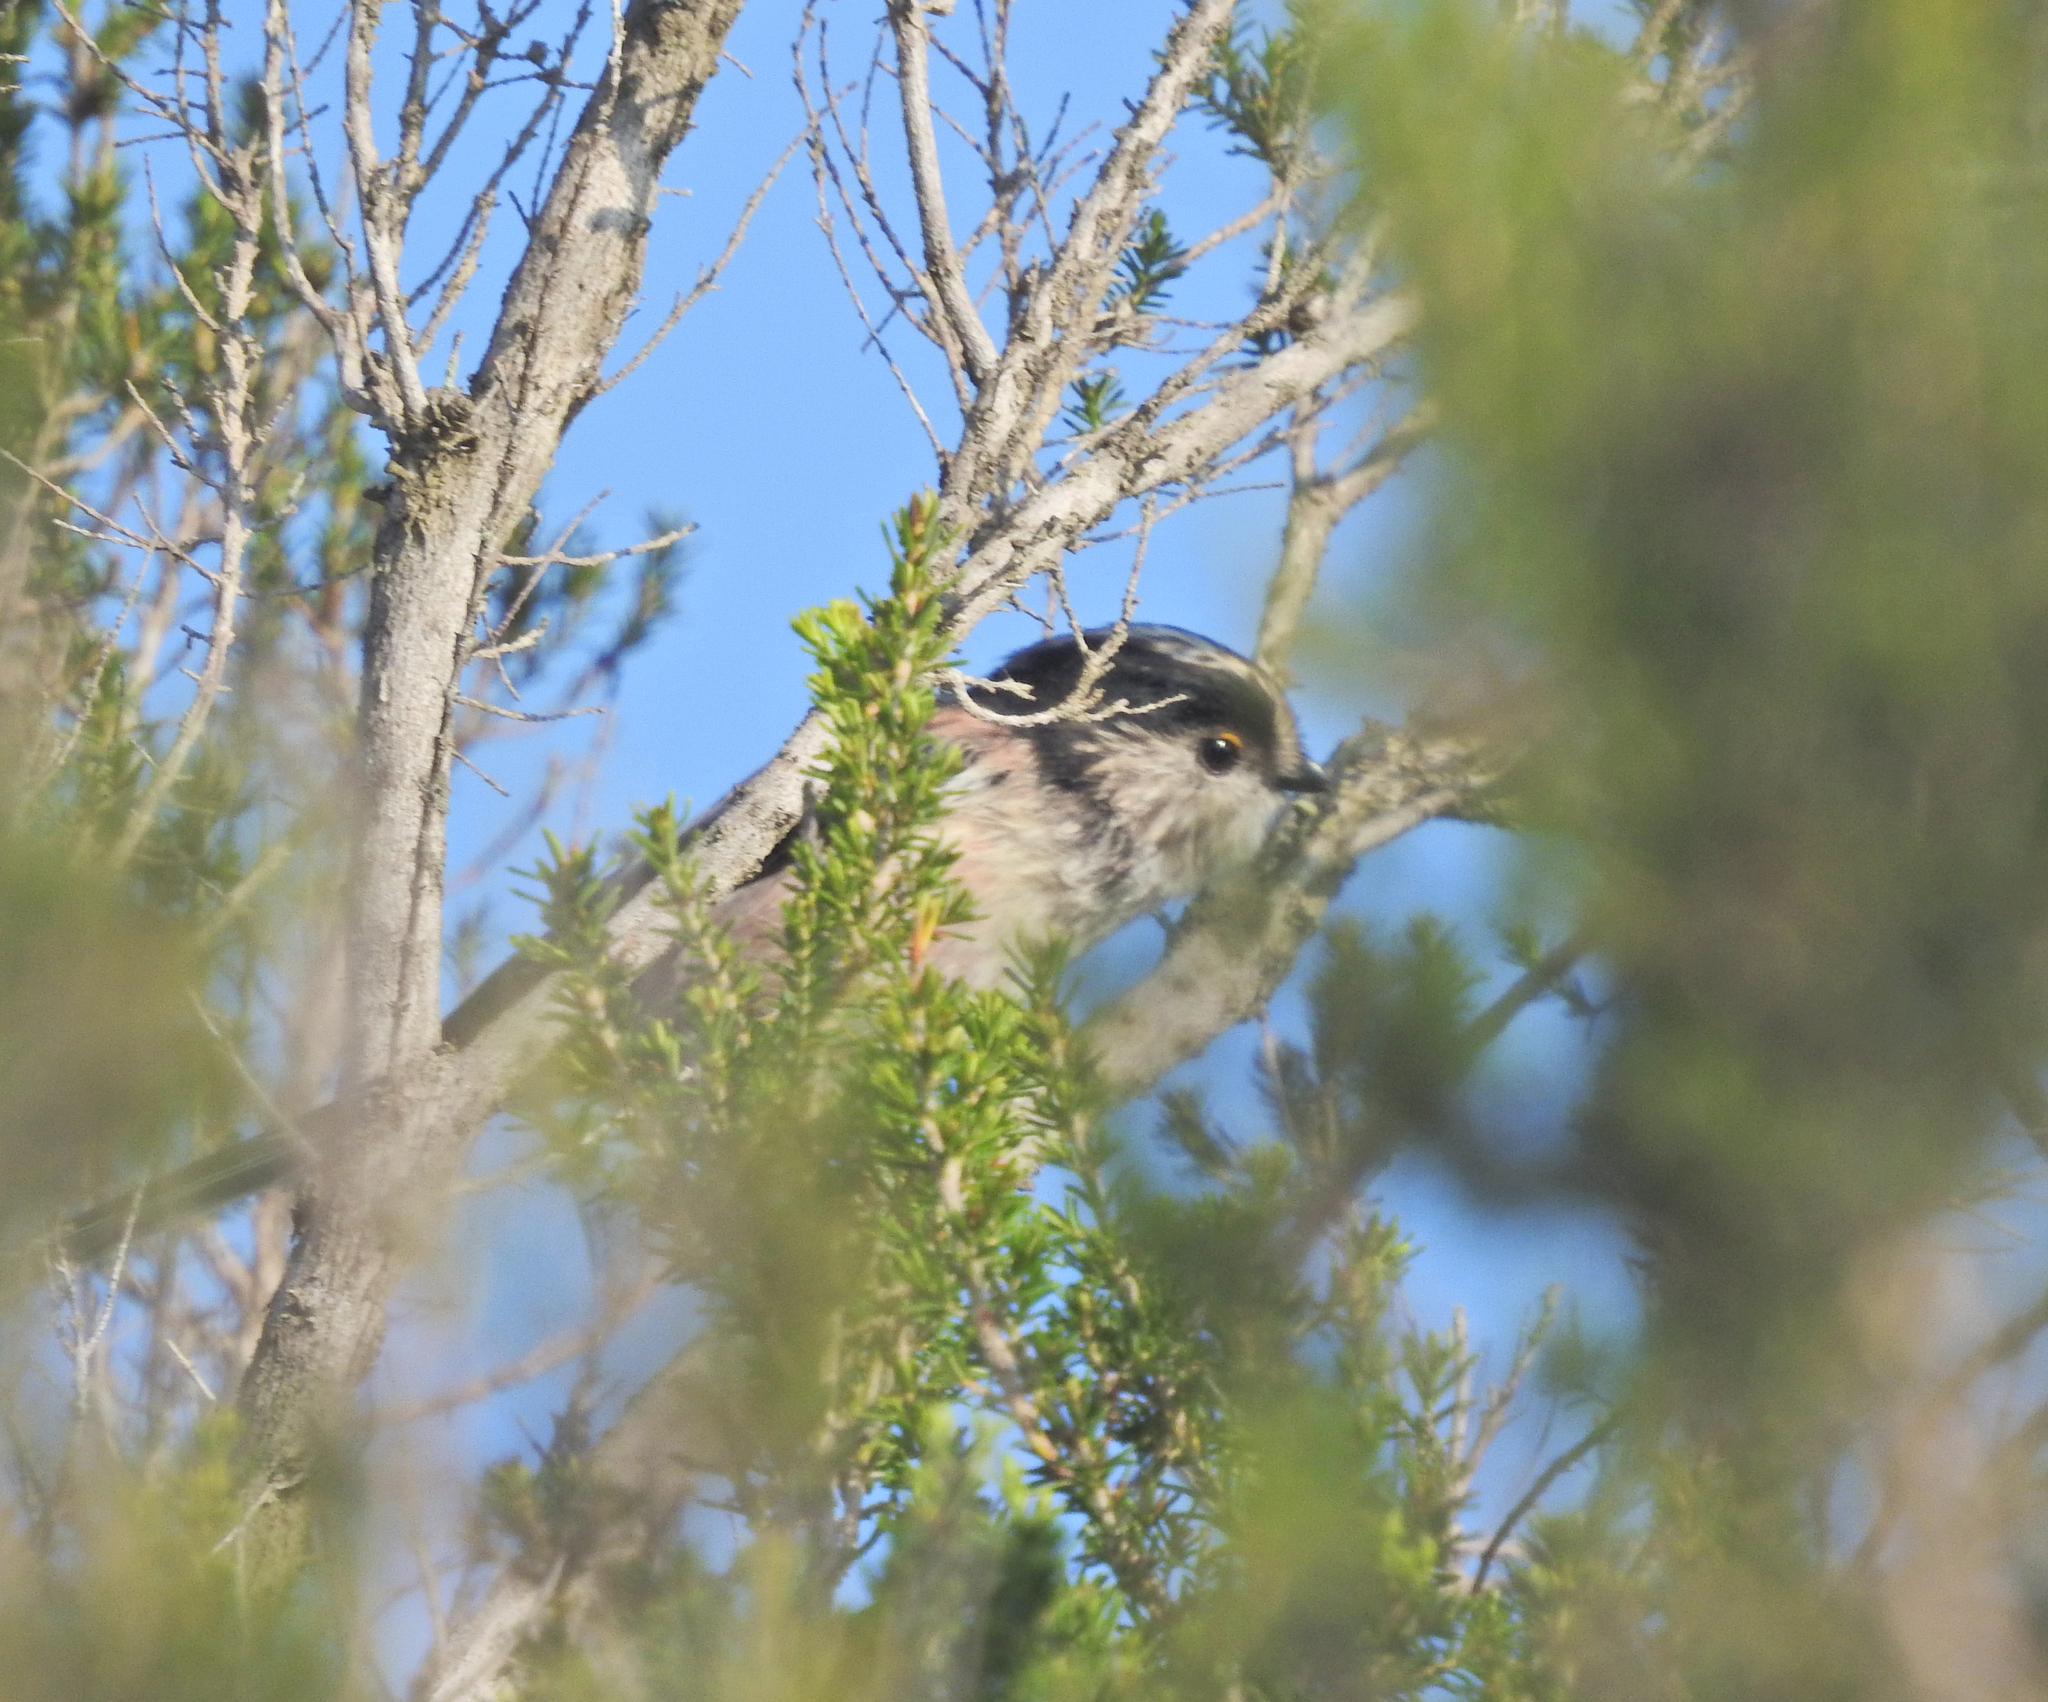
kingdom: Animalia
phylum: Chordata
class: Aves
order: Passeriformes
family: Aegithalidae
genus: Aegithalos
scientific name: Aegithalos caudatus
